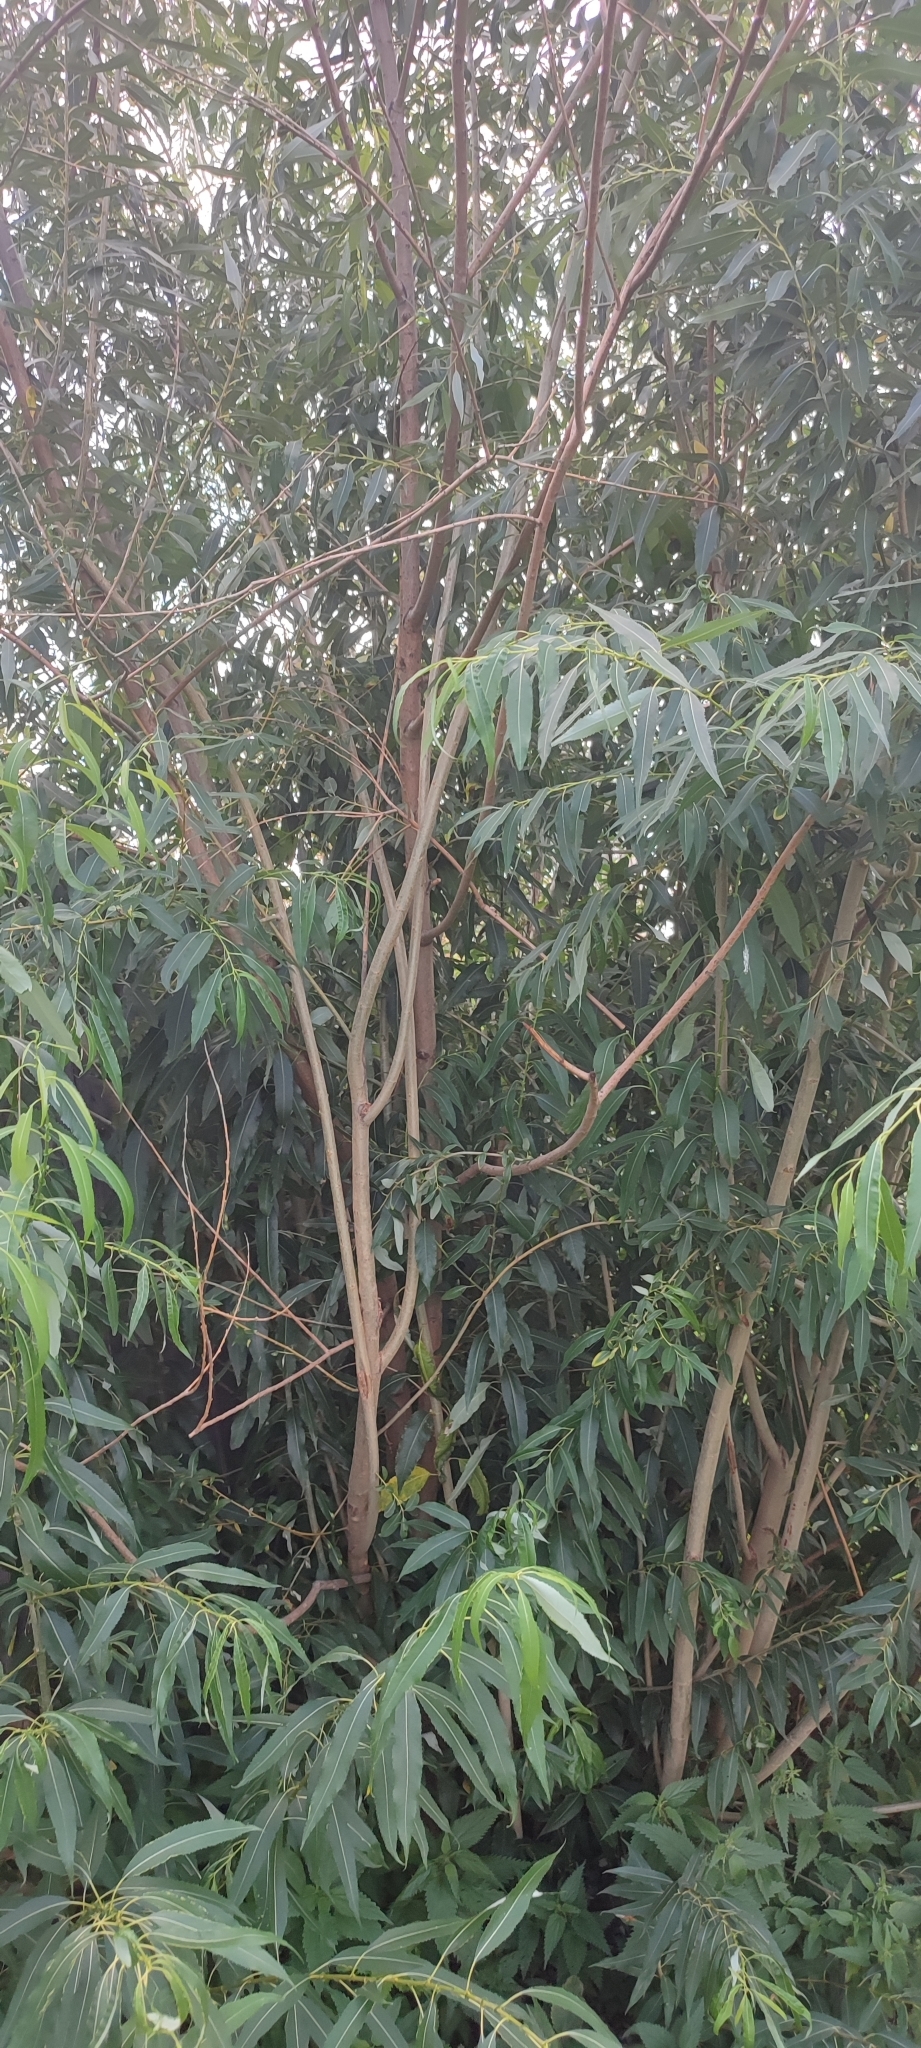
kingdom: Plantae
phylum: Tracheophyta
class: Magnoliopsida
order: Malpighiales
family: Salicaceae
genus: Salix
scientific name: Salix triandra
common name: Almond willow
